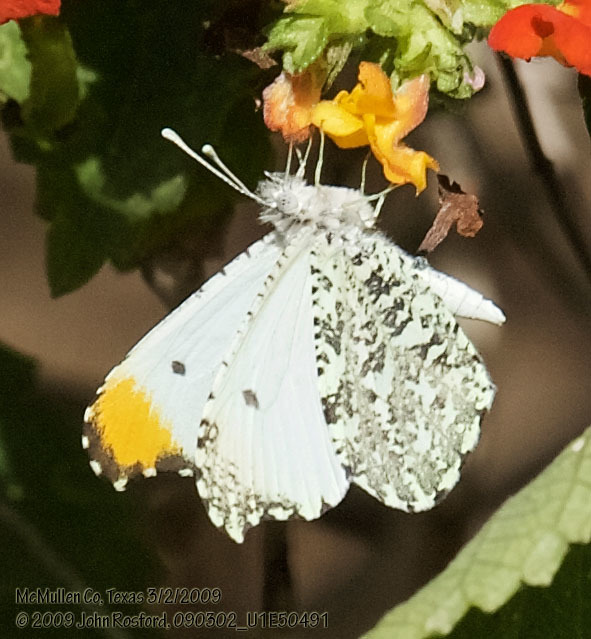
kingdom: Animalia
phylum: Arthropoda
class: Insecta
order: Lepidoptera
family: Pieridae
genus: Anthocharis
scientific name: Anthocharis midea
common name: Falcate orangetip
